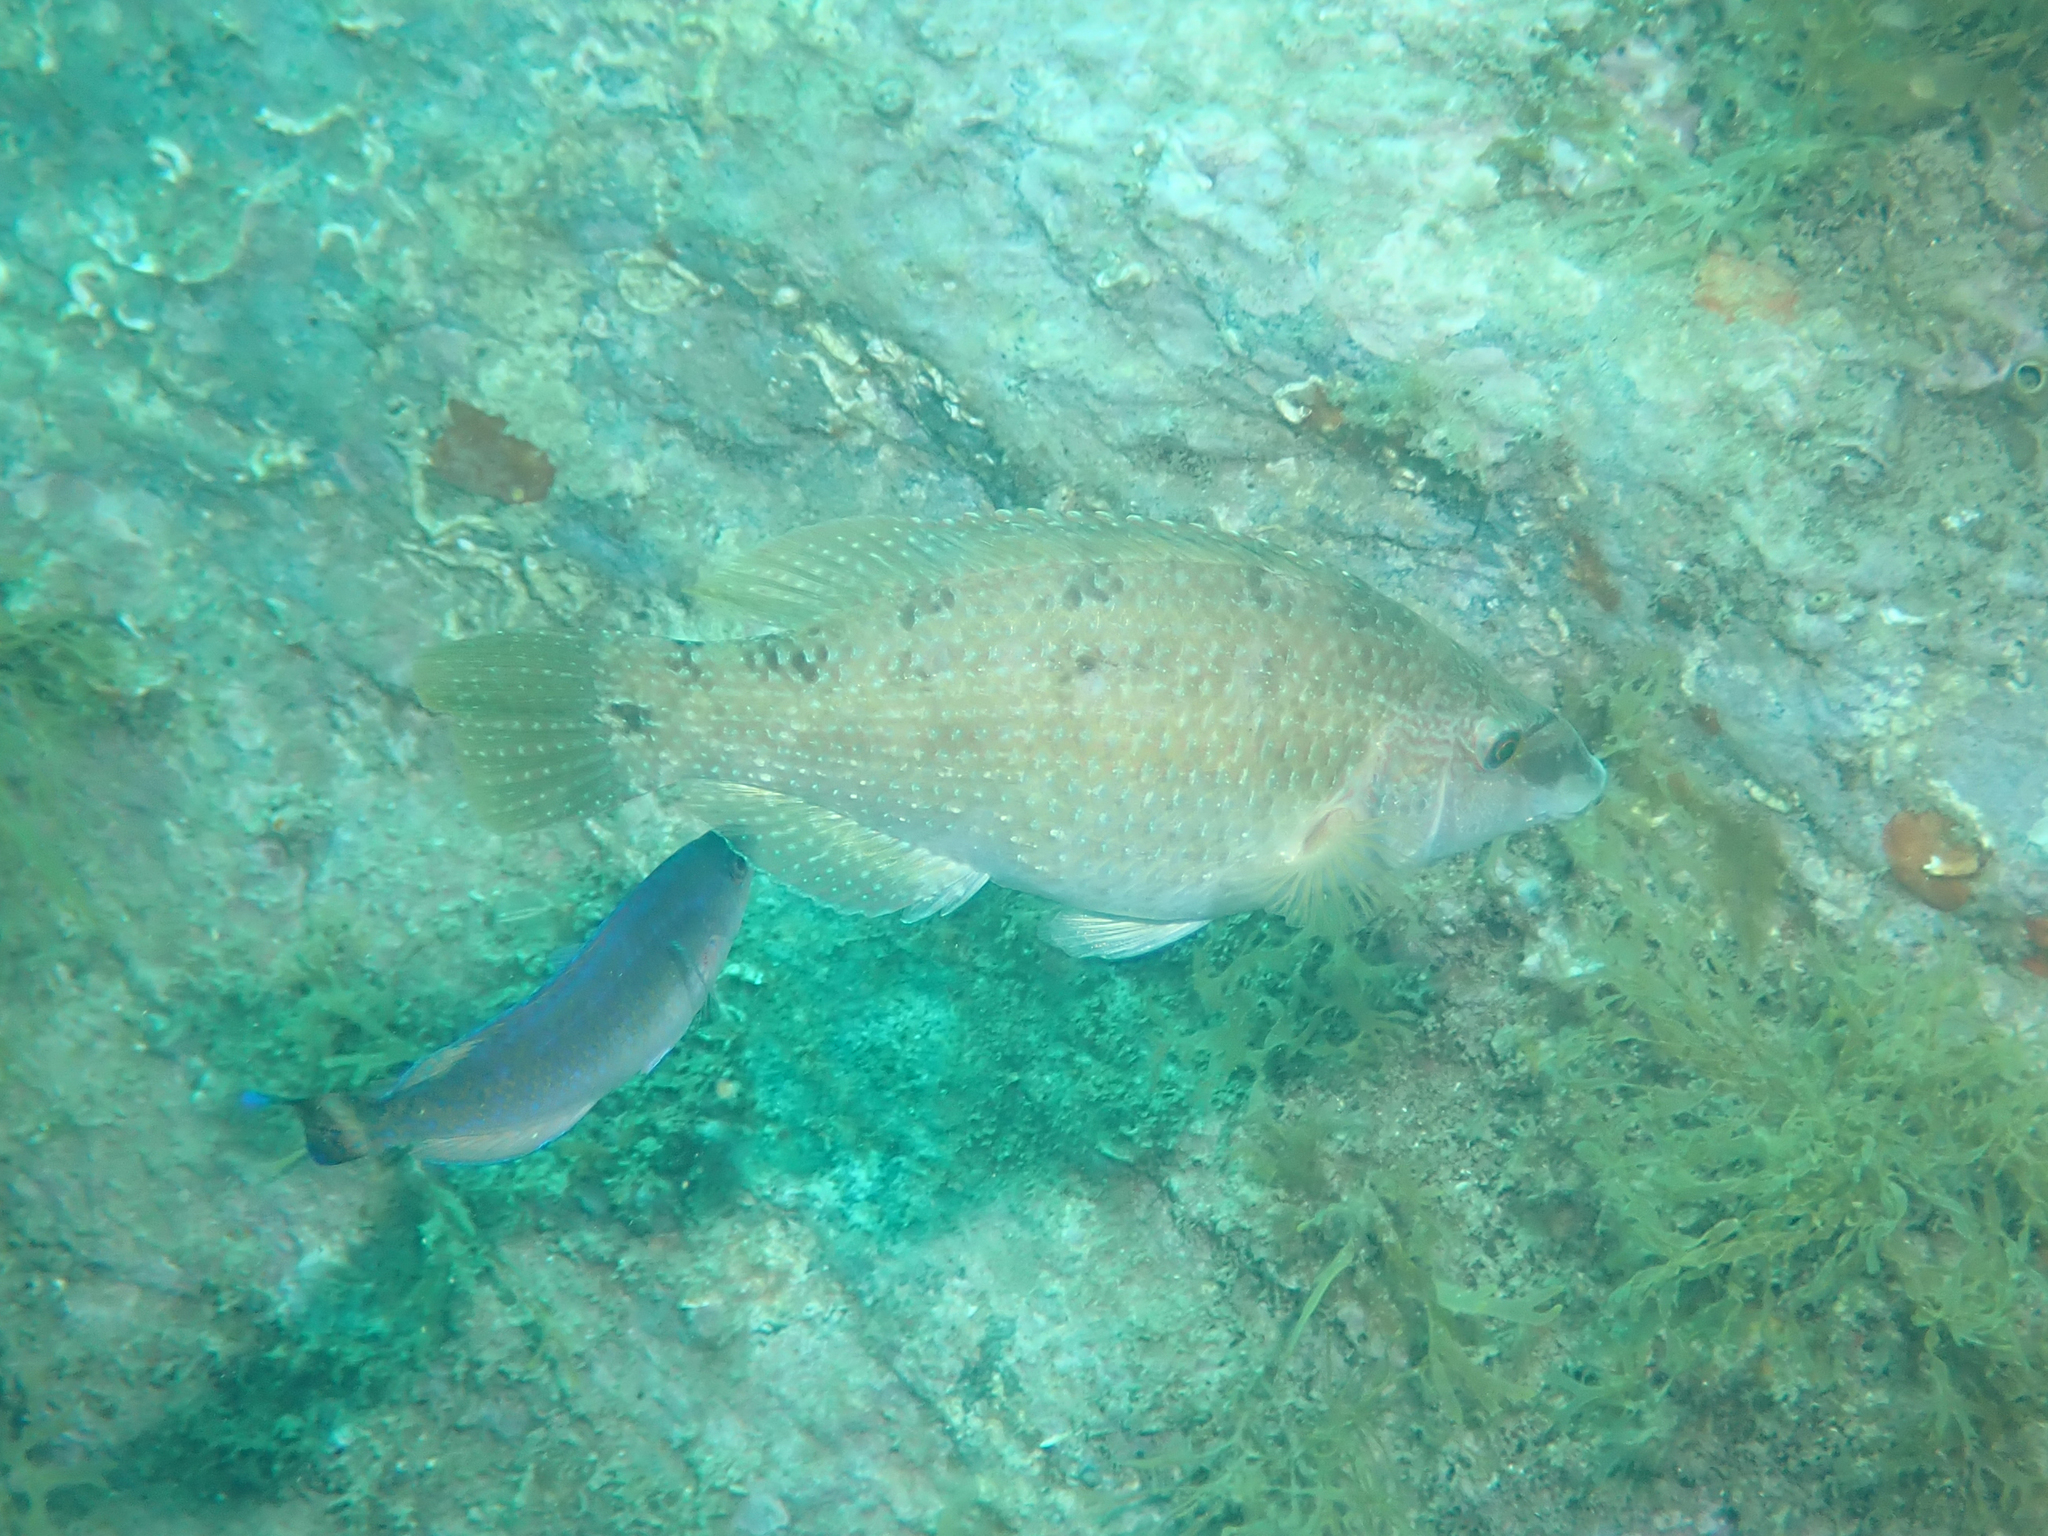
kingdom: Animalia
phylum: Chordata
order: Perciformes
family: Labridae
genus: Symphodus
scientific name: Symphodus tinca
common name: Peacock wrasse
